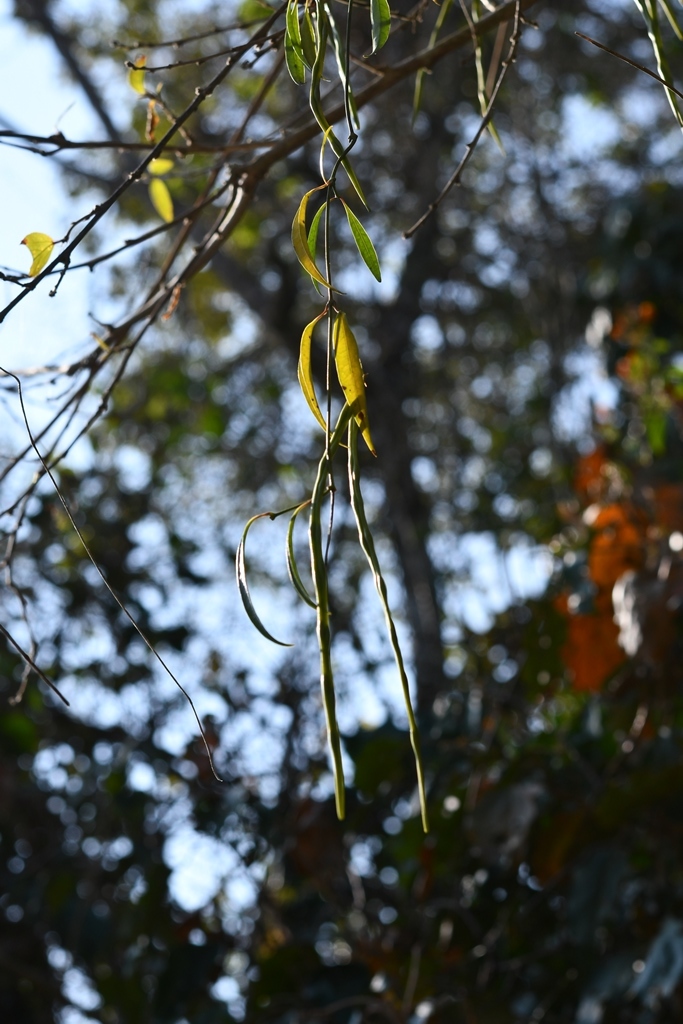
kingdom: Plantae
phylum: Tracheophyta
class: Magnoliopsida
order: Gentianales
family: Apocynaceae
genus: Echites
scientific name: Echites tuxtlensis
